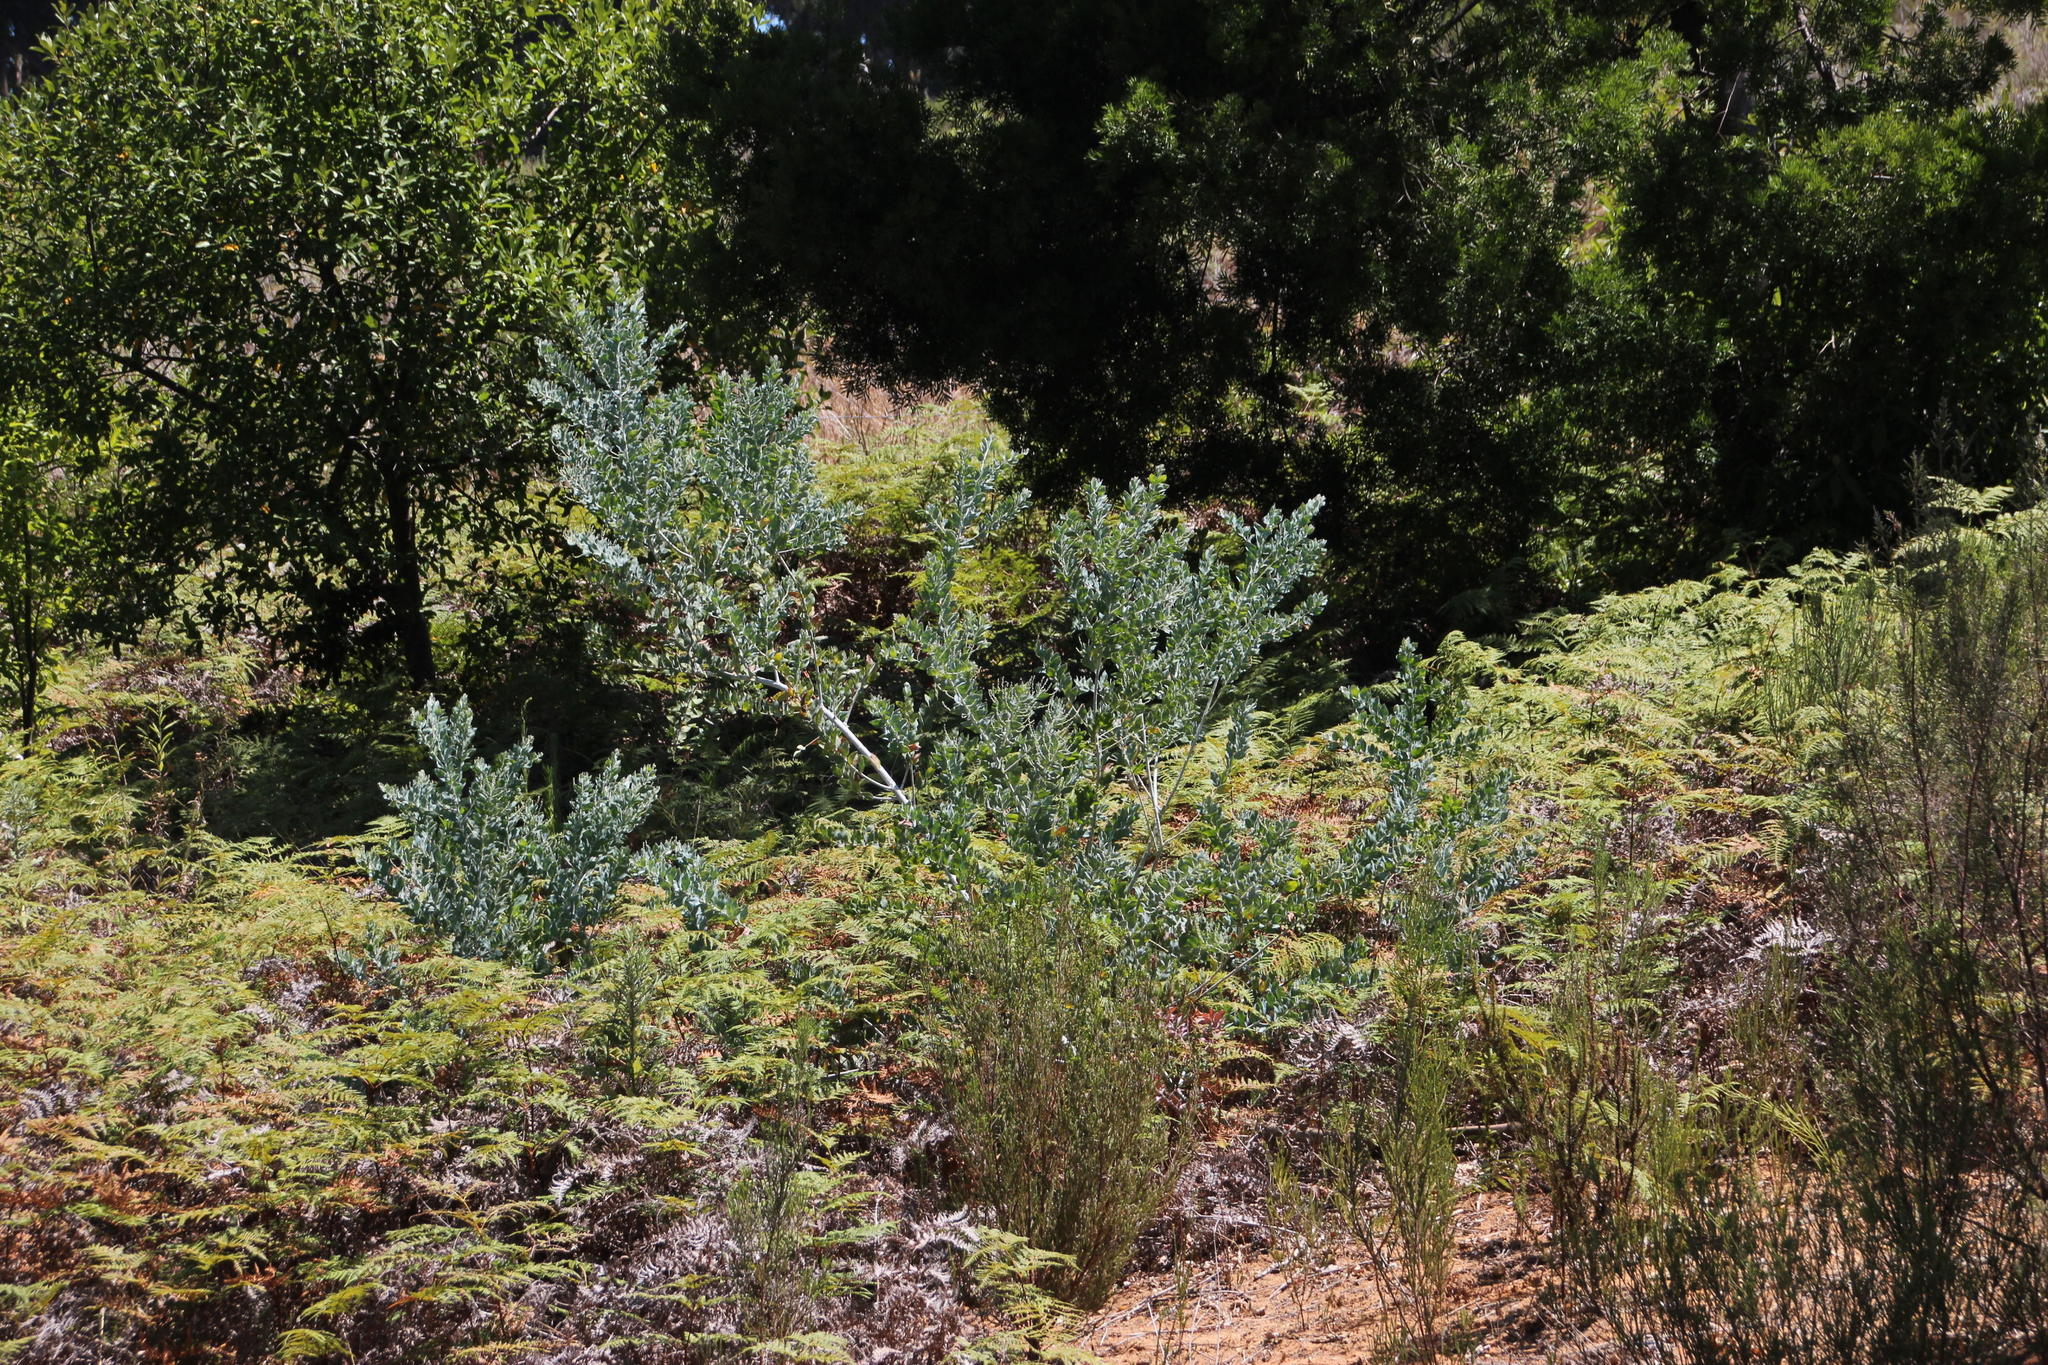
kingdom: Plantae
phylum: Tracheophyta
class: Magnoliopsida
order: Fabales
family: Fabaceae
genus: Acacia
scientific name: Acacia podalyriifolia
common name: Pearl wattle
